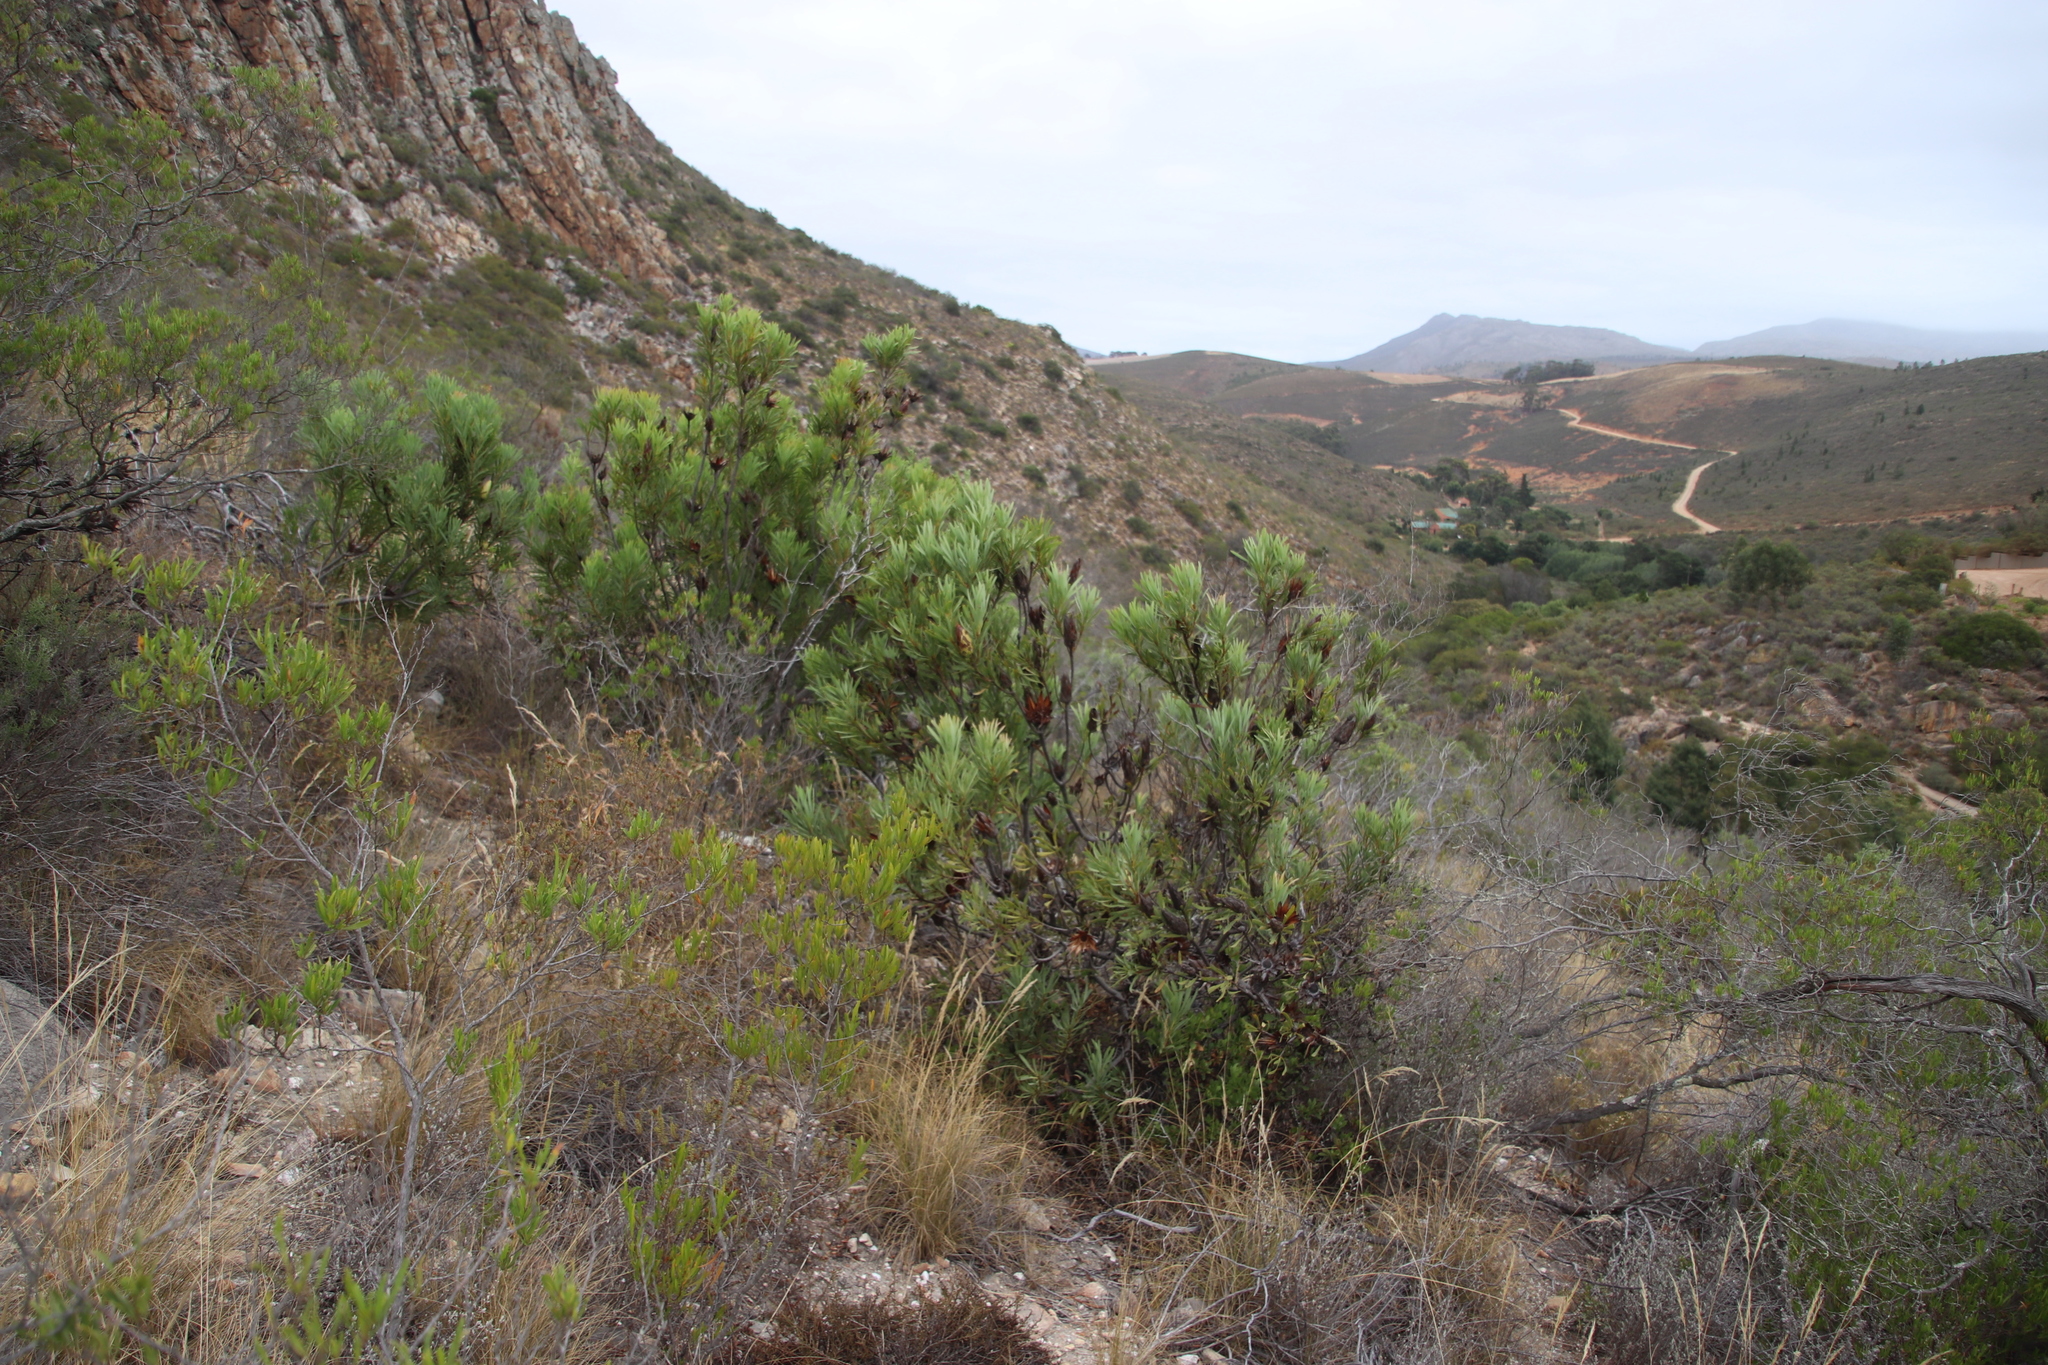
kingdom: Plantae
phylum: Tracheophyta
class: Magnoliopsida
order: Proteales
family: Proteaceae
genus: Protea
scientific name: Protea repens
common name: Sugarbush
